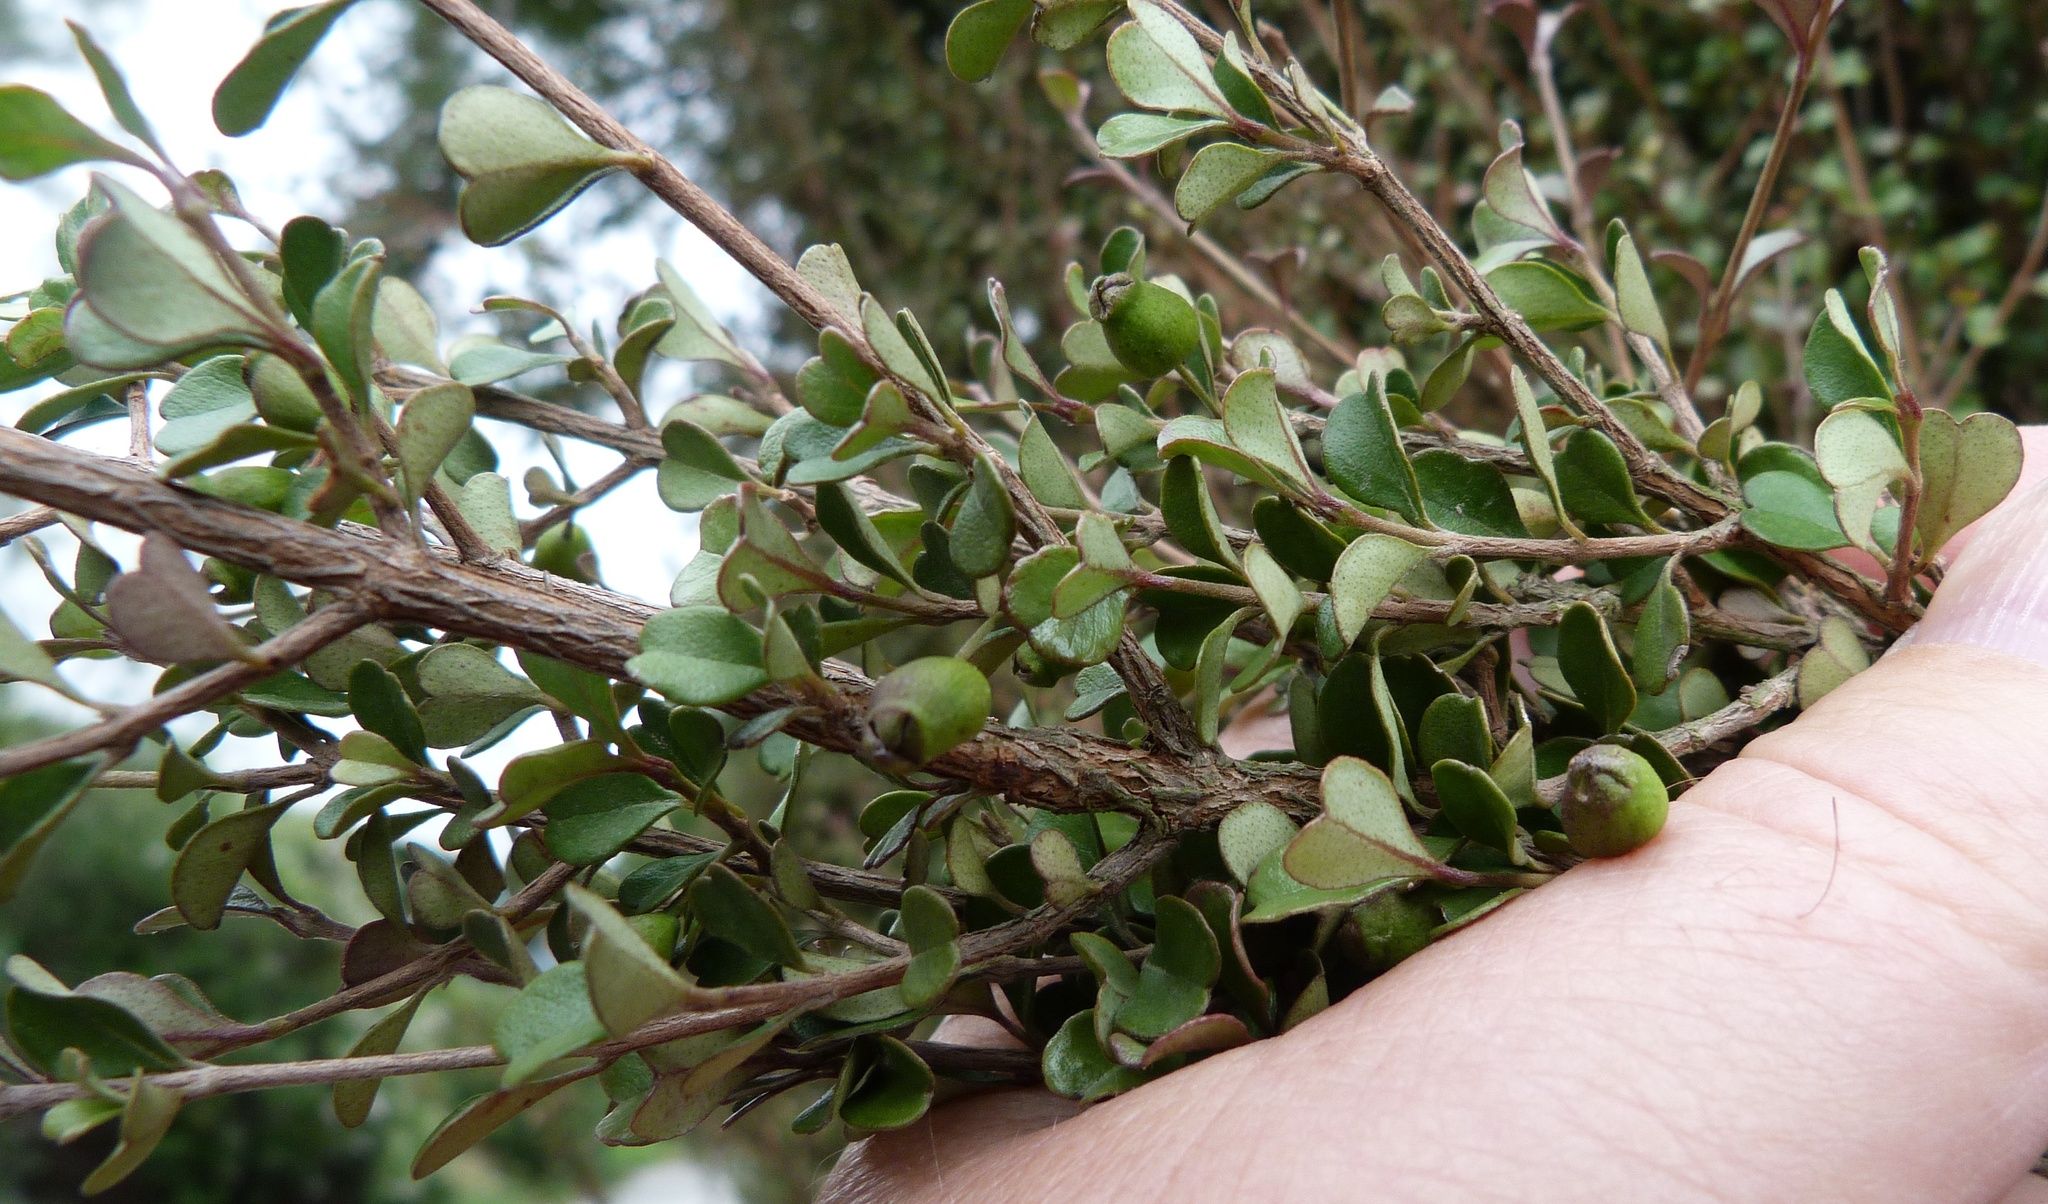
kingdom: Plantae
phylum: Tracheophyta
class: Magnoliopsida
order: Myrtales
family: Myrtaceae
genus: Lophomyrtus
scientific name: Lophomyrtus obcordata
